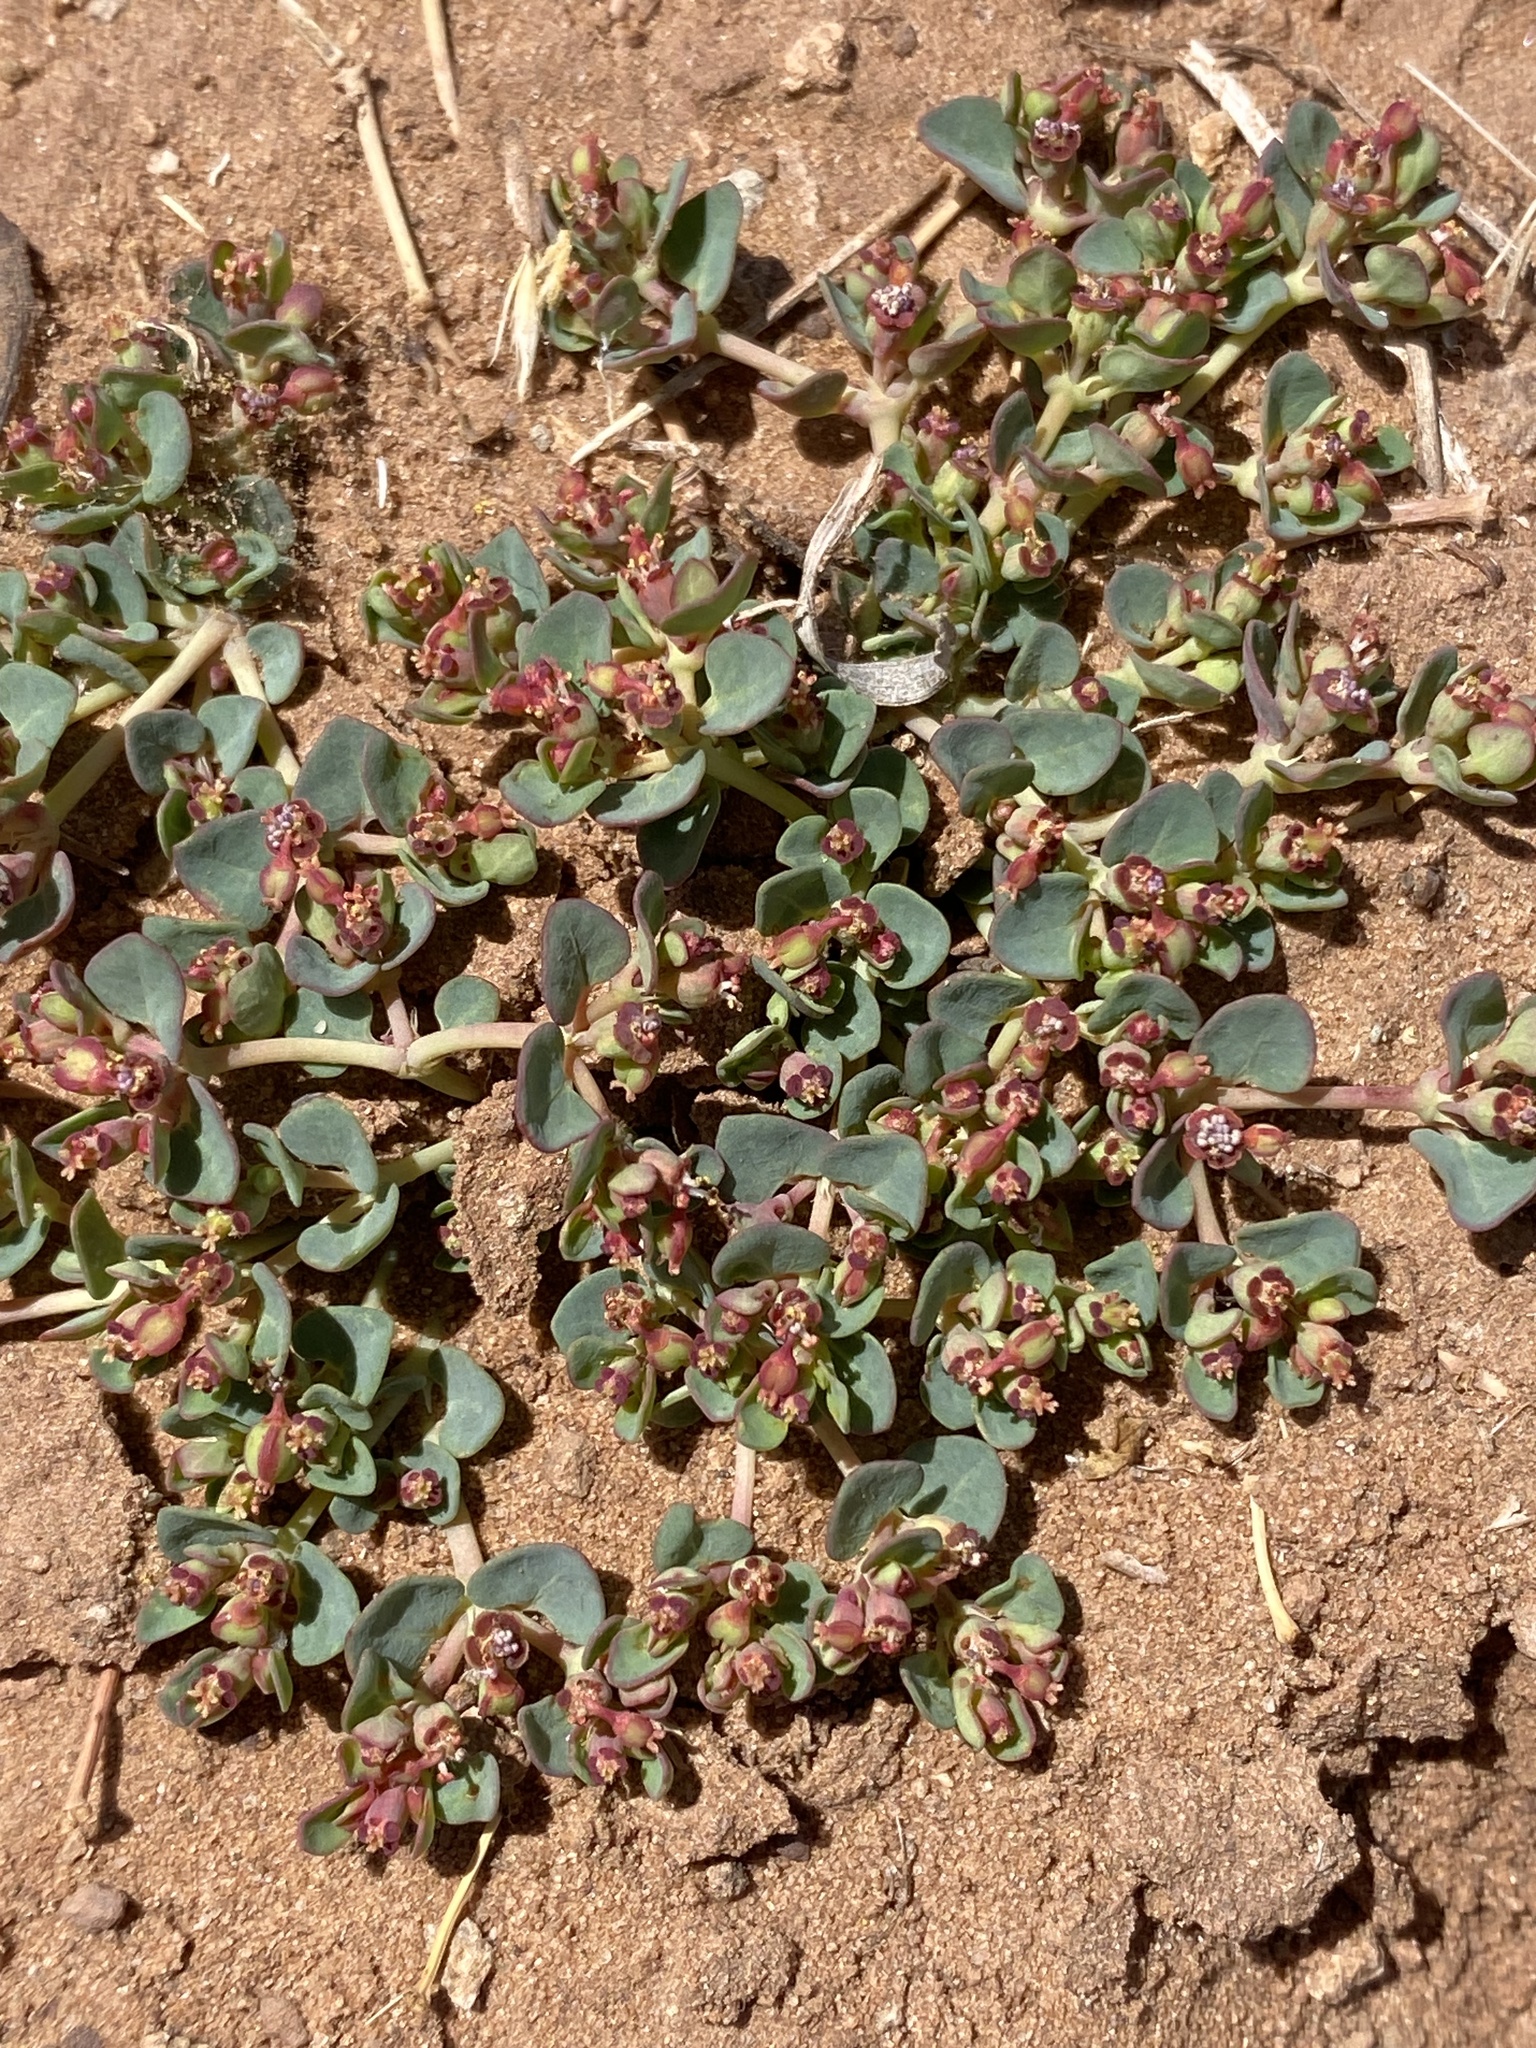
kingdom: Plantae
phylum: Tracheophyta
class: Magnoliopsida
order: Malpighiales
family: Euphorbiaceae
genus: Euphorbia
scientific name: Euphorbia fendleri
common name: Fendler's euphorbia
